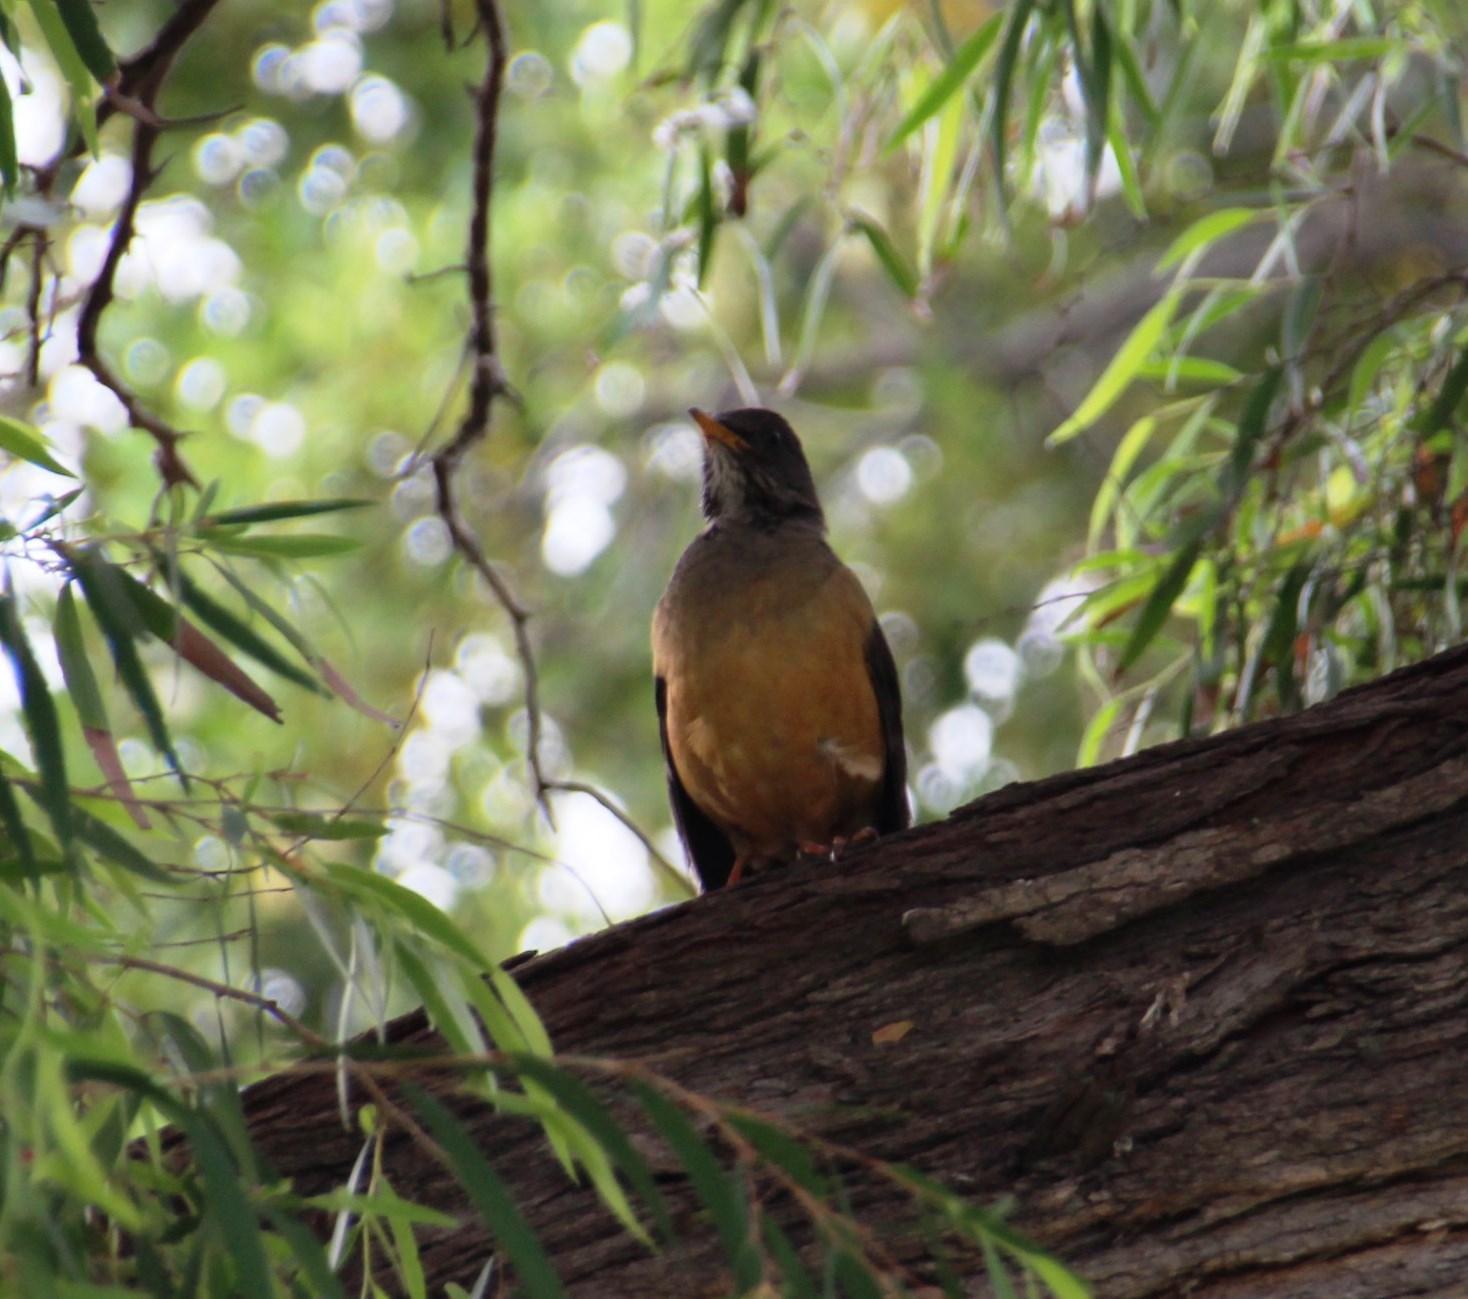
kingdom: Animalia
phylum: Chordata
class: Aves
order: Passeriformes
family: Turdidae
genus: Turdus
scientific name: Turdus olivaceus
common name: Olive thrush
